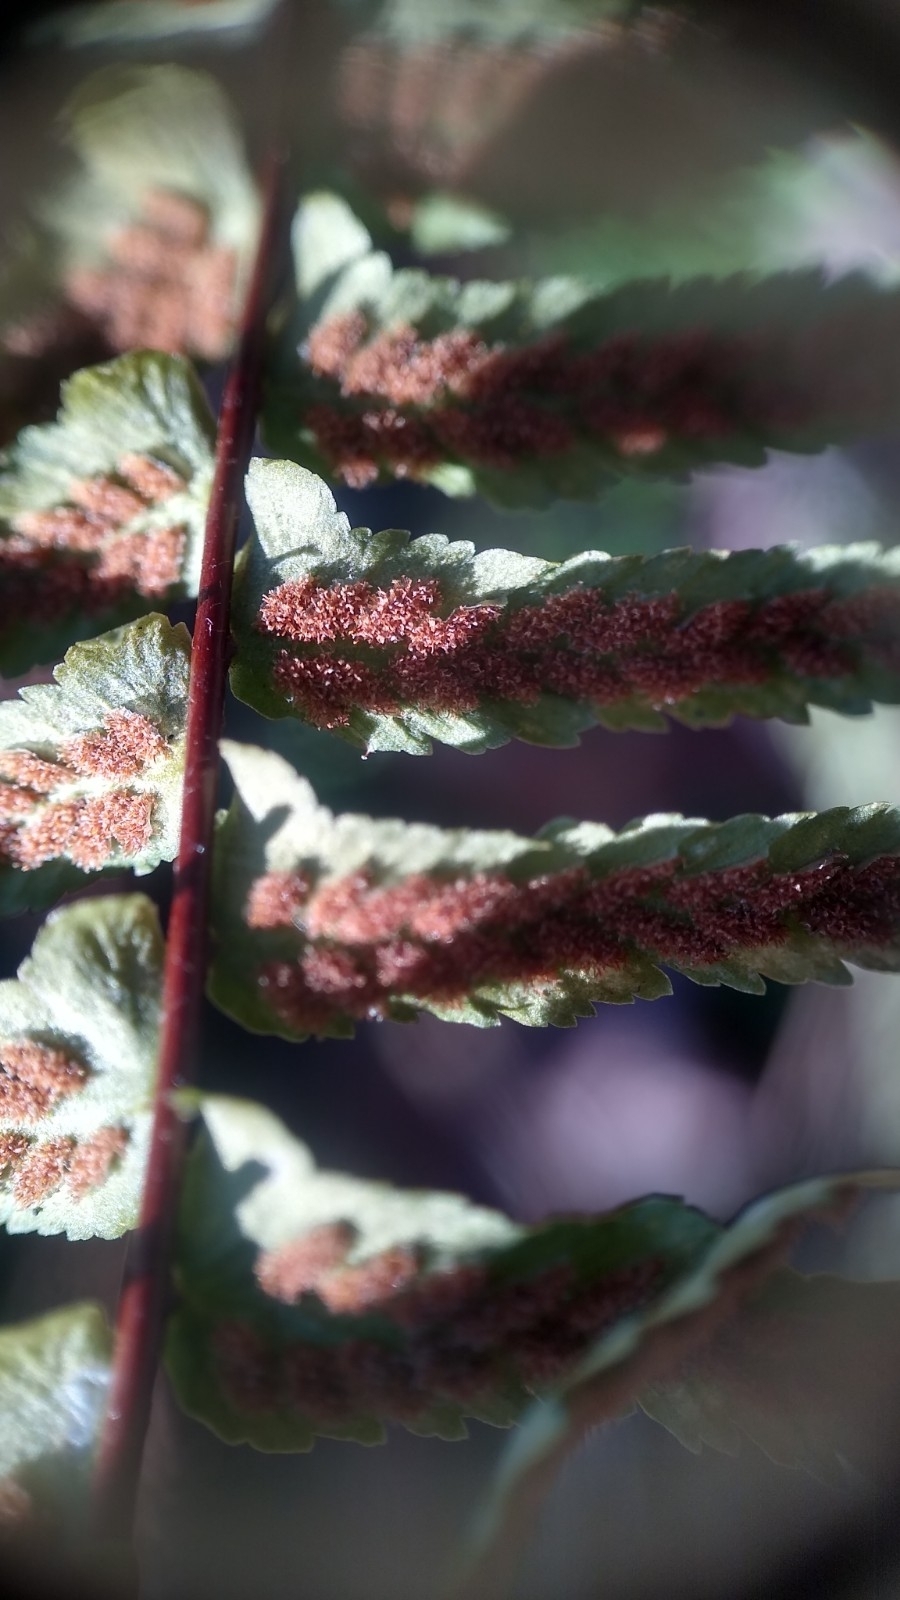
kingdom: Plantae
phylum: Tracheophyta
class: Polypodiopsida
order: Polypodiales
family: Aspleniaceae
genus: Asplenium
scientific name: Asplenium platyneuron
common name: Ebony spleenwort
